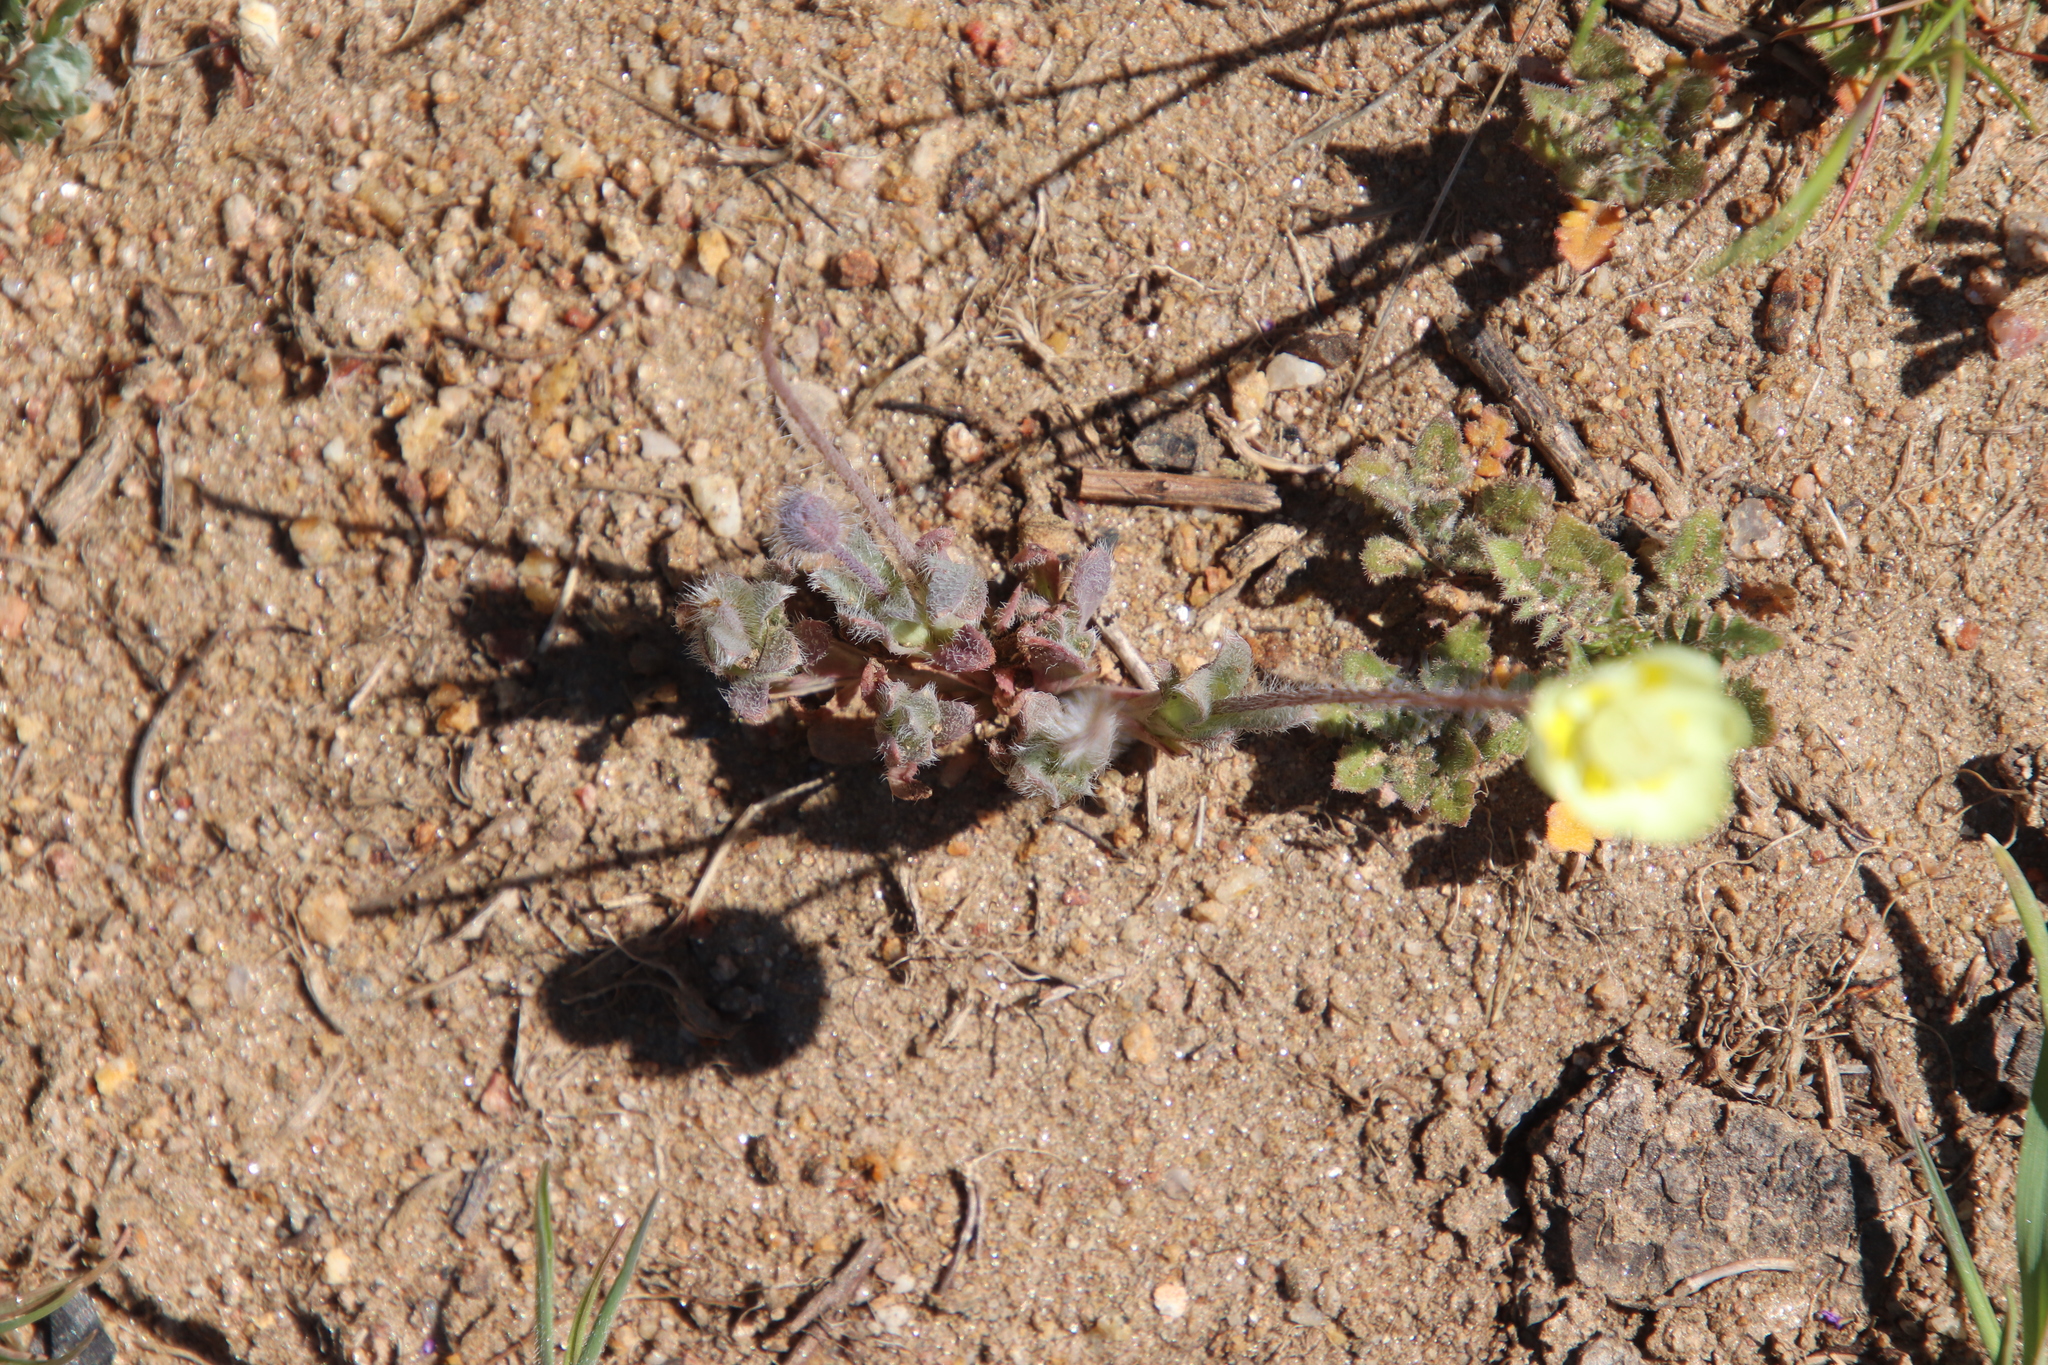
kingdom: Plantae
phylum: Tracheophyta
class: Magnoliopsida
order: Ranunculales
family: Papaveraceae
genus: Platystemon
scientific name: Platystemon californicus
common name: Cream-cups
